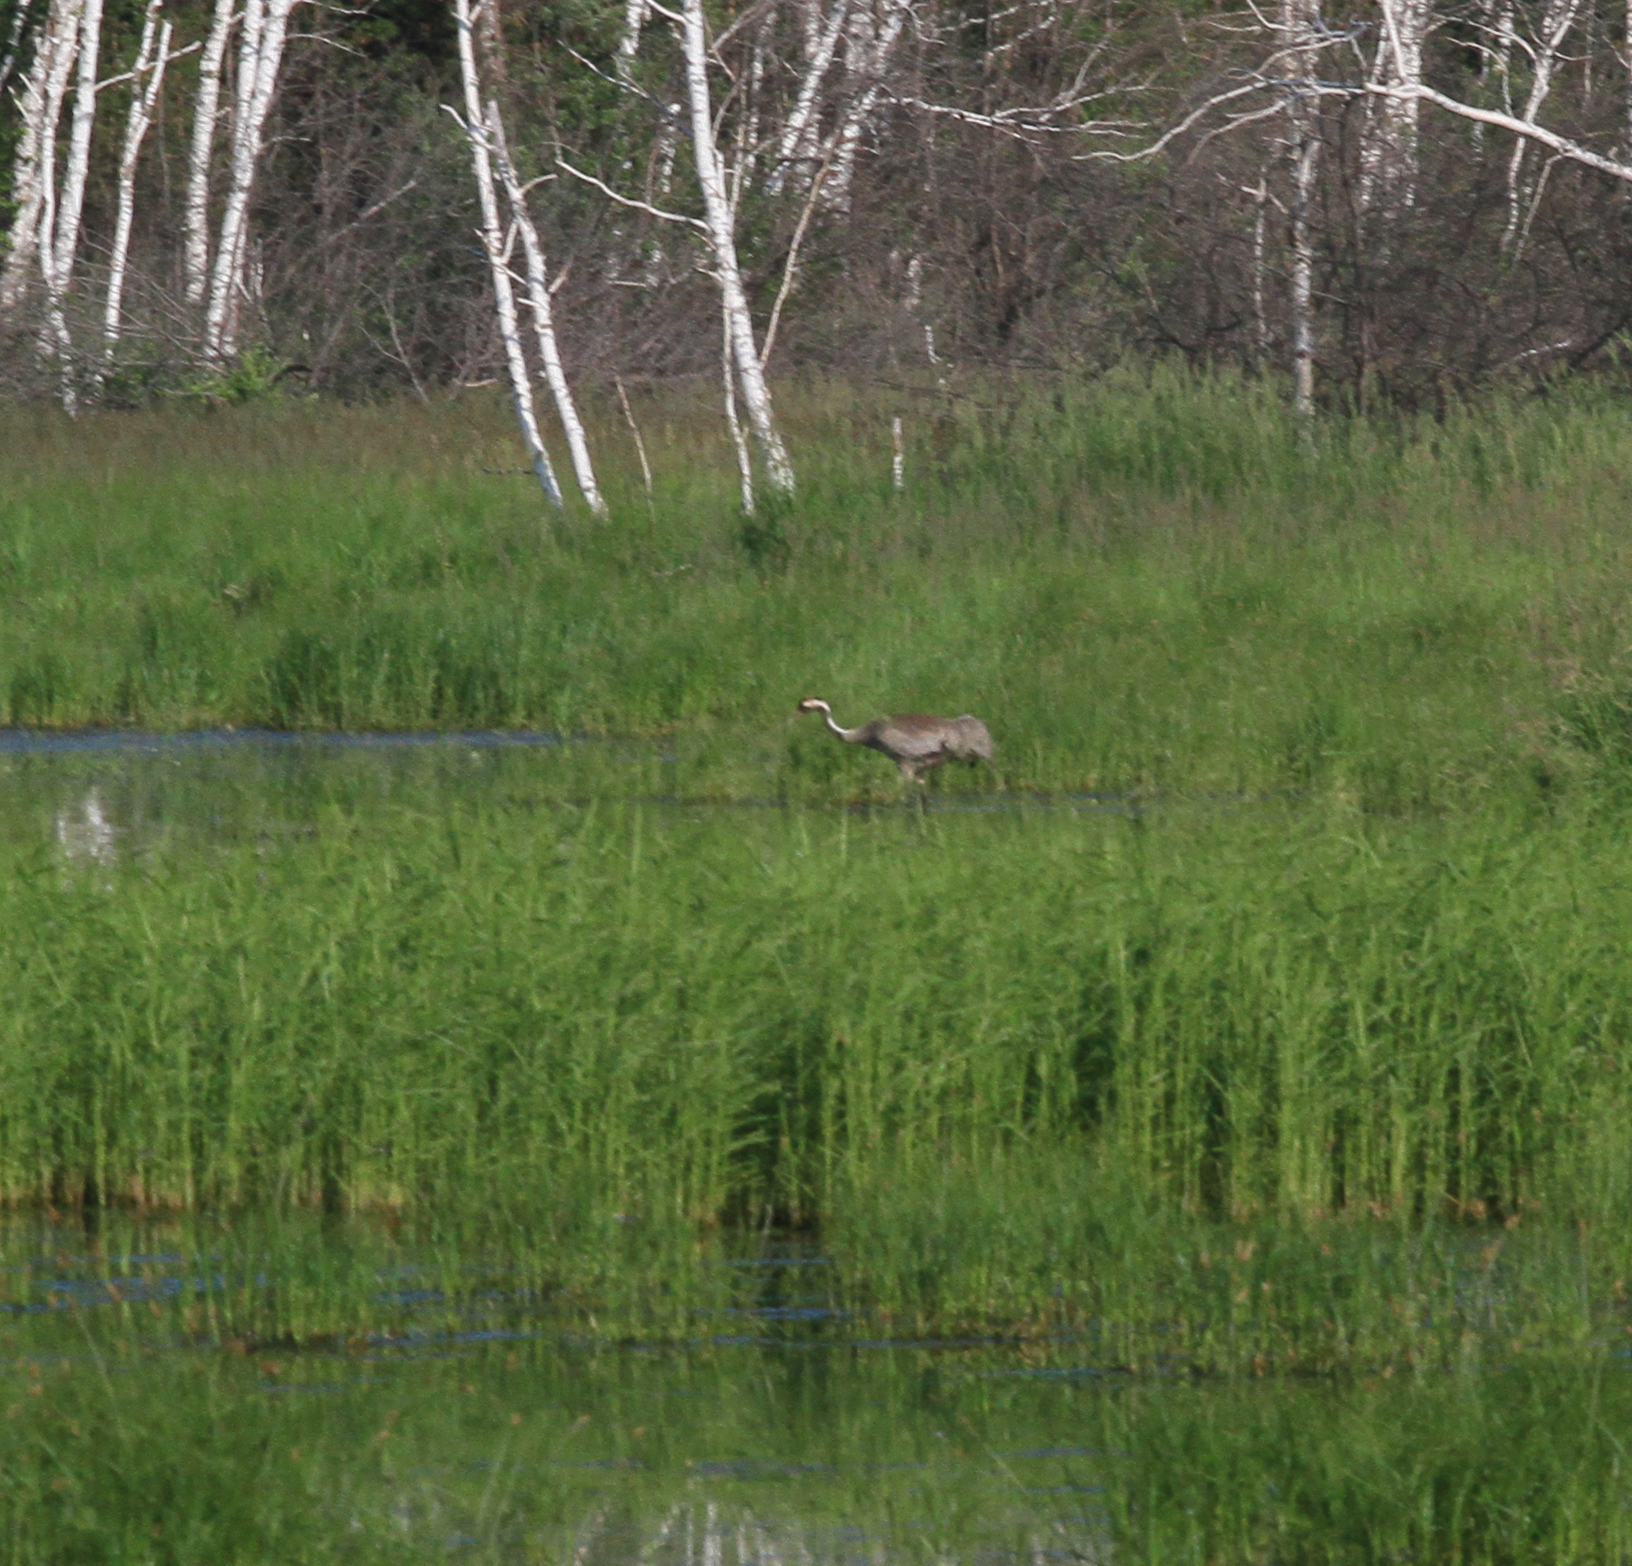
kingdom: Animalia
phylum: Chordata
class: Aves
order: Gruiformes
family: Gruidae
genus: Grus
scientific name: Grus grus
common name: Common crane
